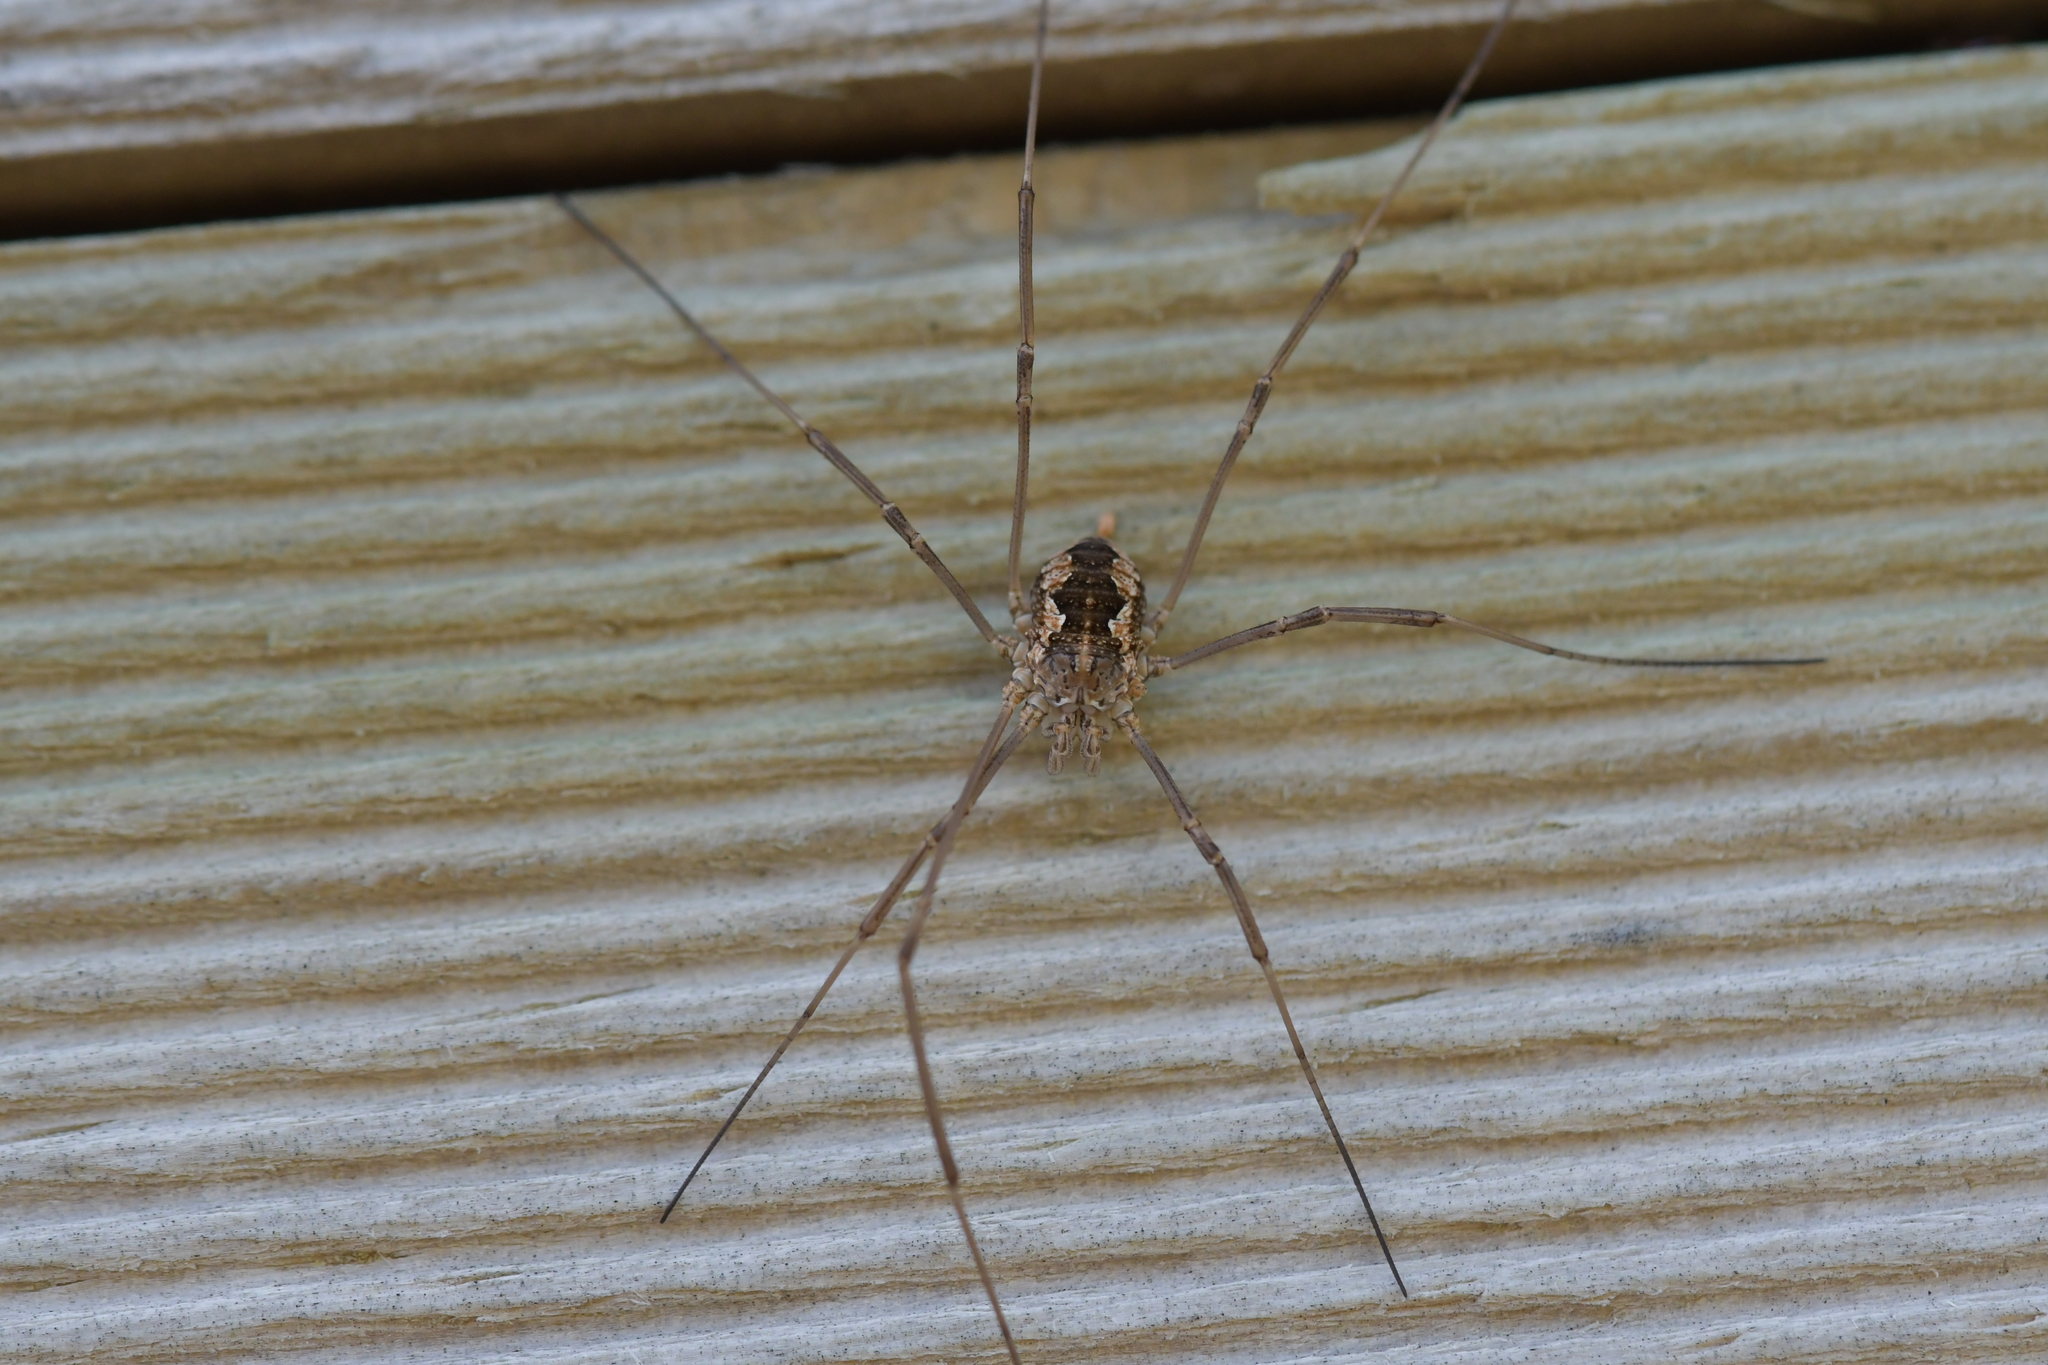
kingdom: Animalia
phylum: Arthropoda
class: Arachnida
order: Opiliones
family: Phalangiidae
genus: Phalangium
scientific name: Phalangium opilio
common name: Daddy longleg
